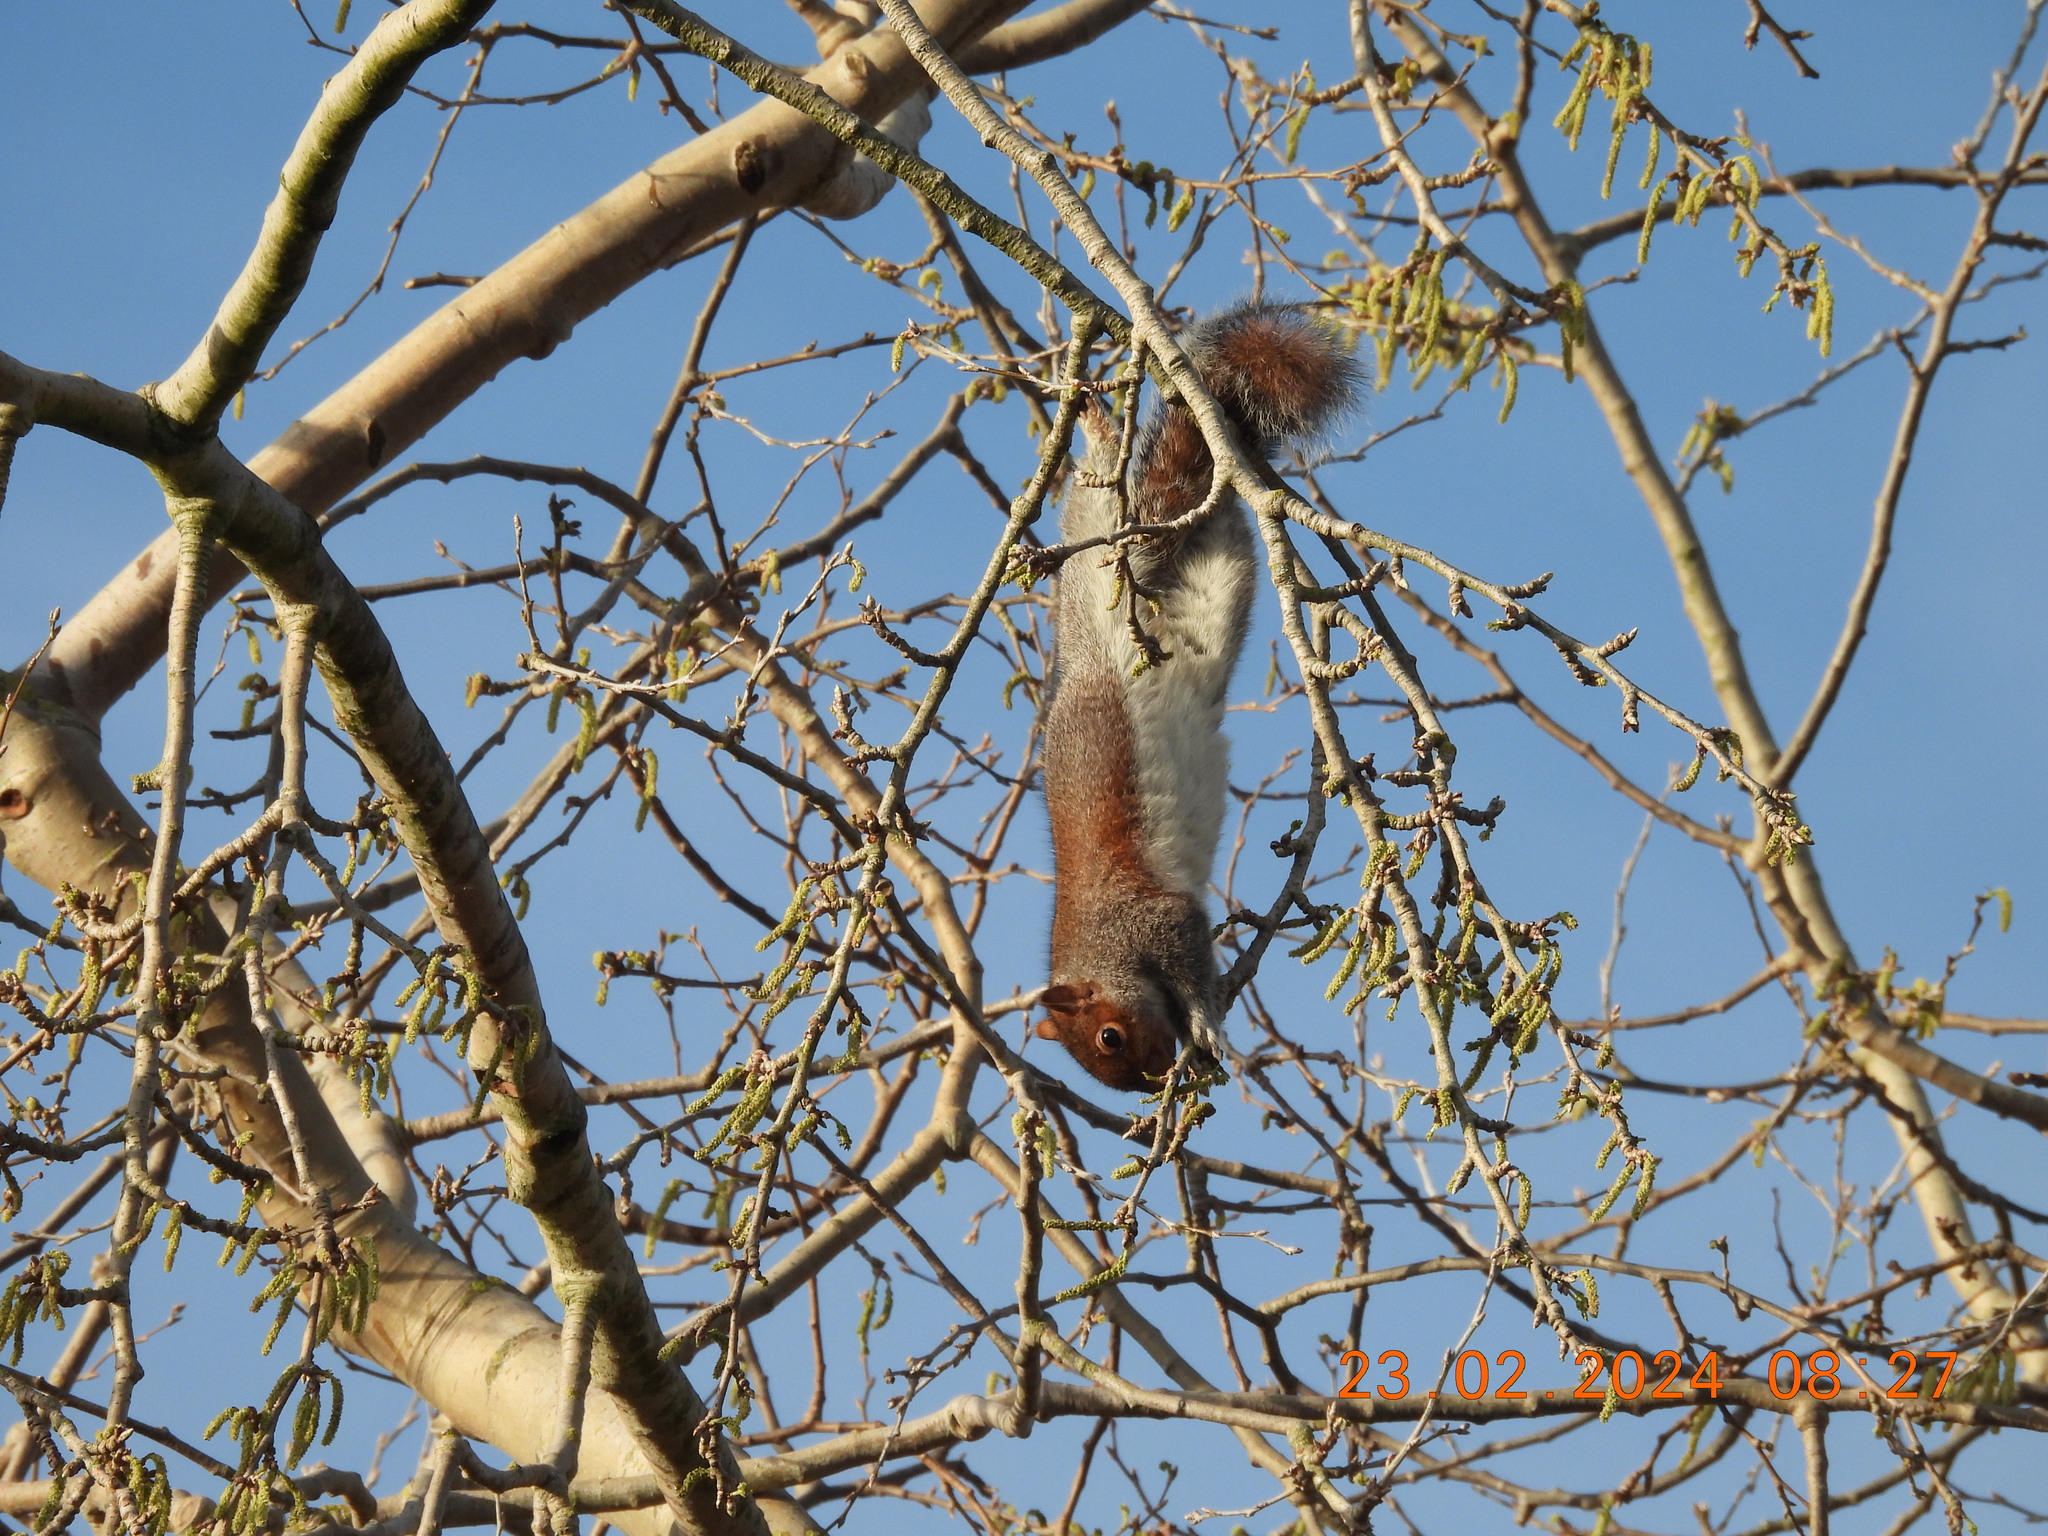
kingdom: Animalia
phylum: Chordata
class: Mammalia
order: Rodentia
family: Sciuridae
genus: Sciurus
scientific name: Sciurus carolinensis
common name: Eastern gray squirrel
